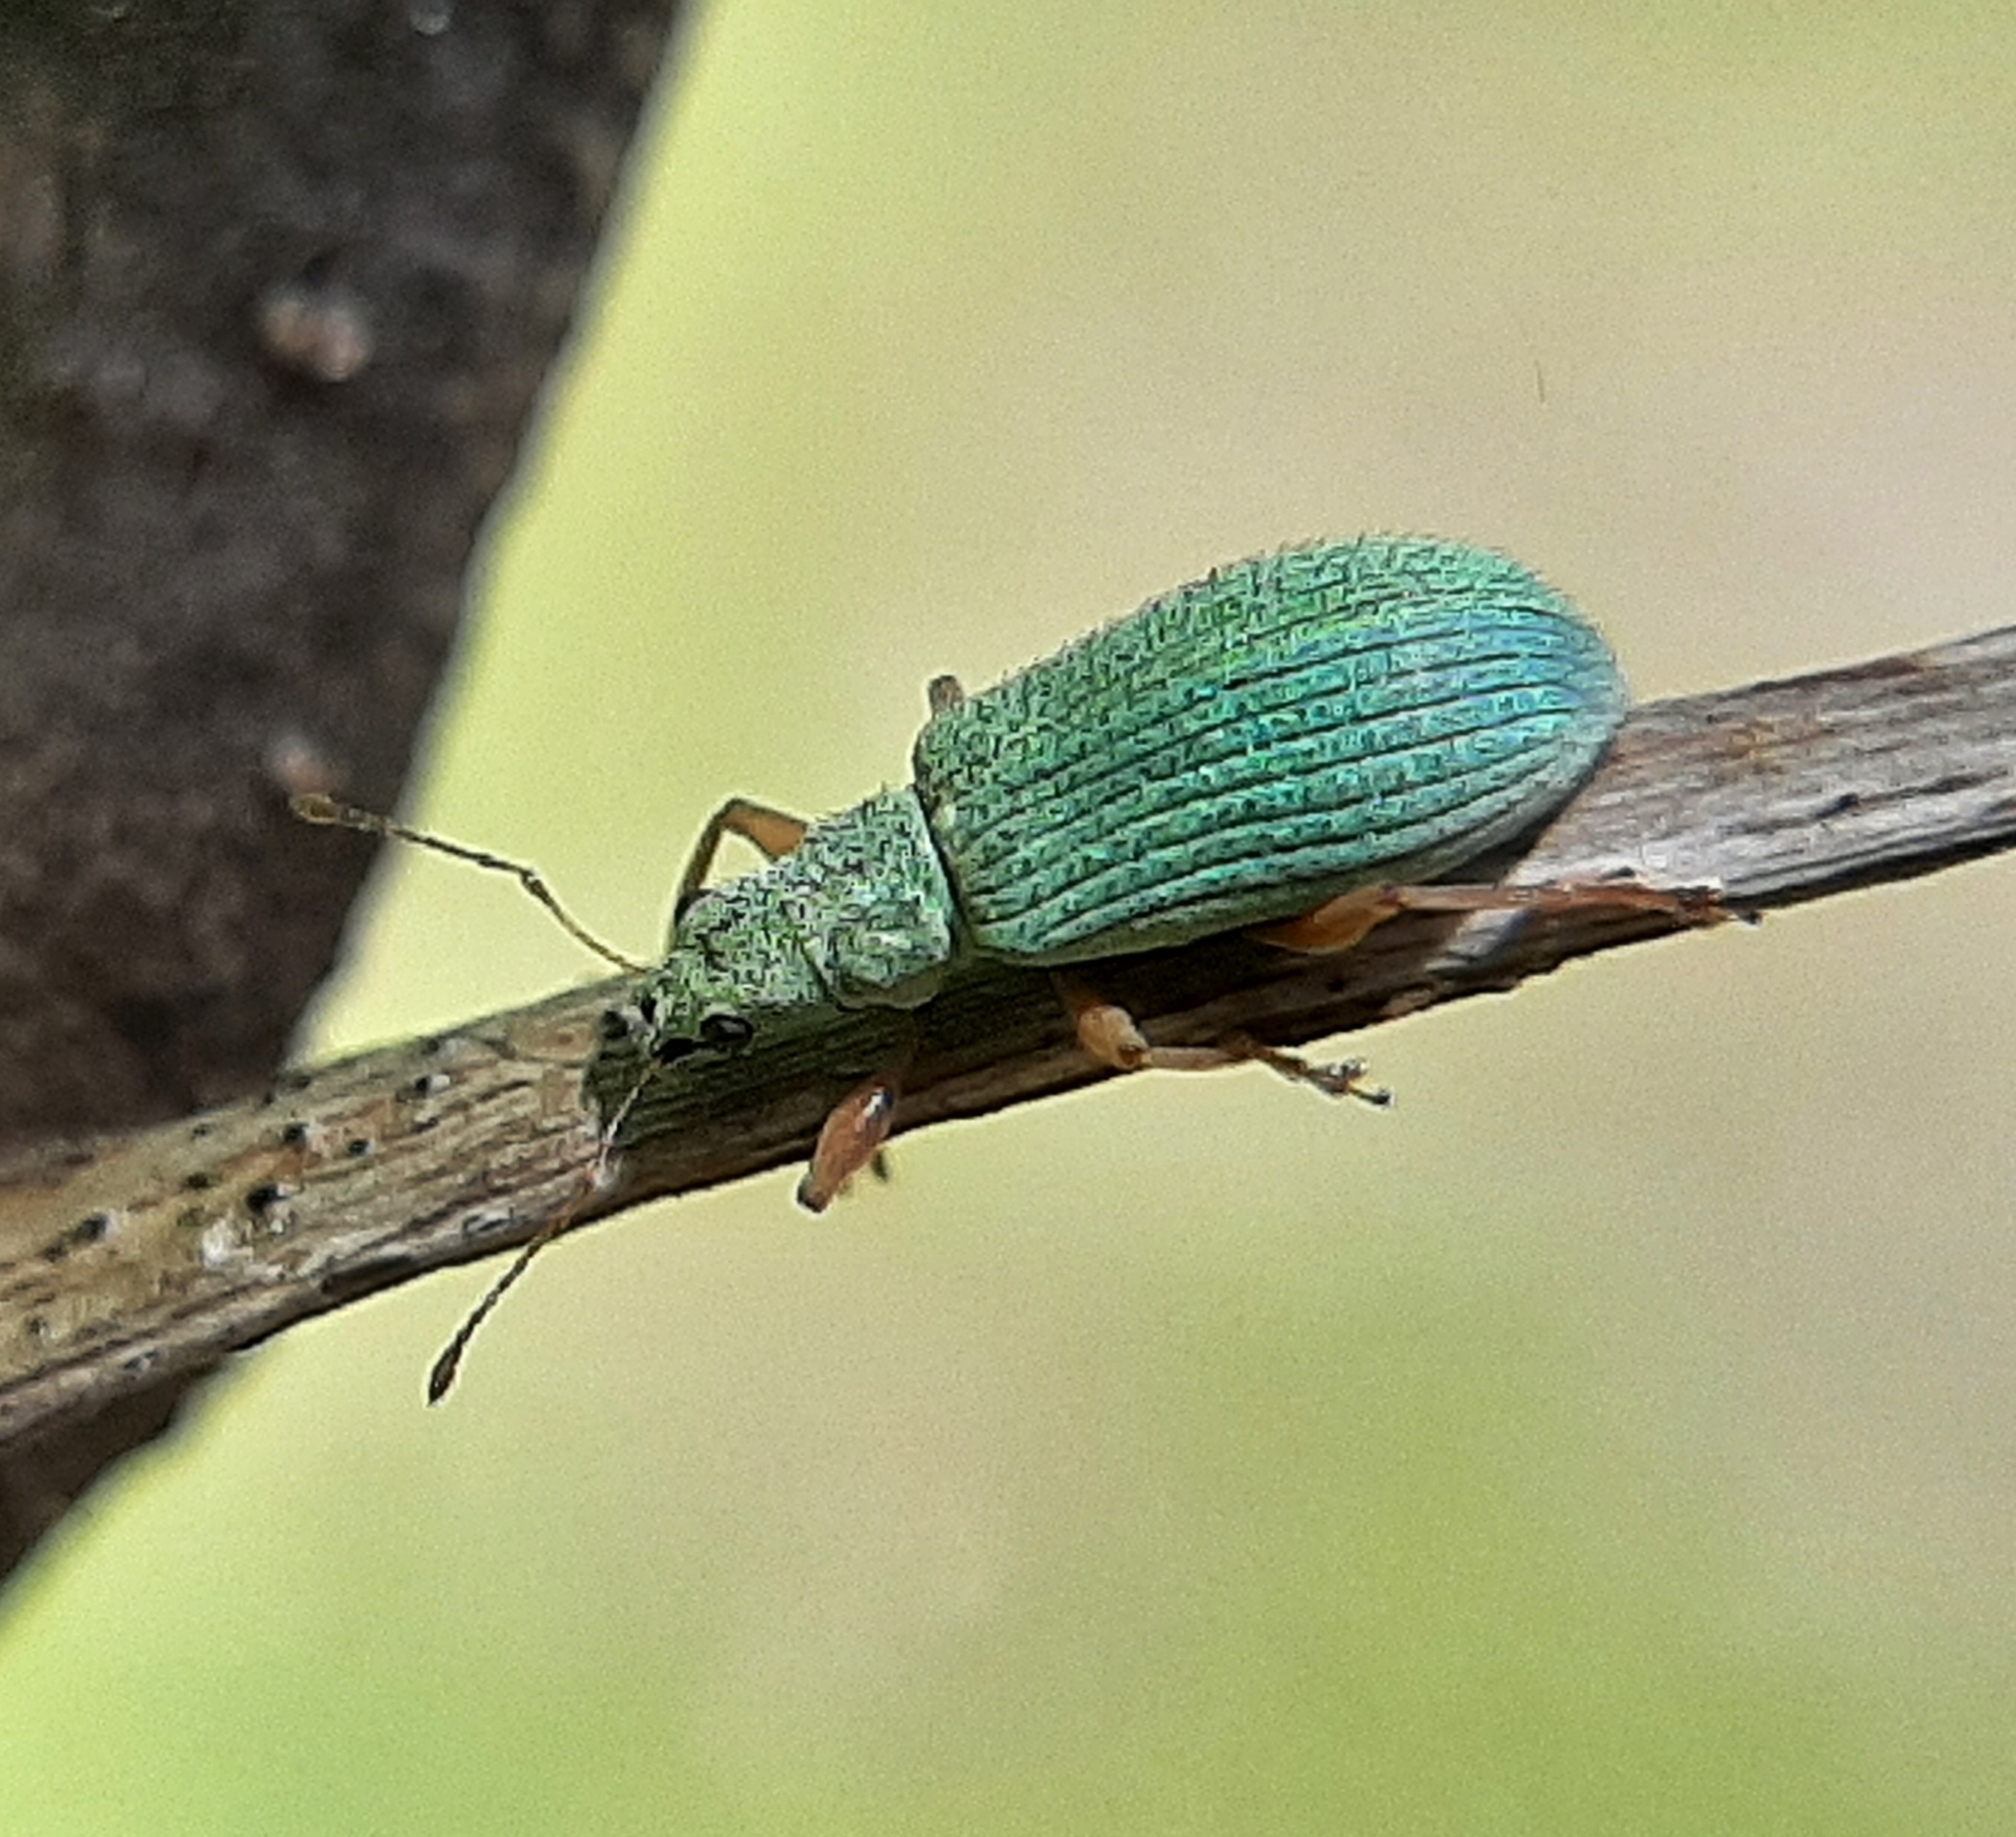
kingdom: Animalia
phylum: Arthropoda
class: Insecta
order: Coleoptera
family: Curculionidae
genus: Polydrusus
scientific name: Polydrusus impressifrons
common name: Weevil
